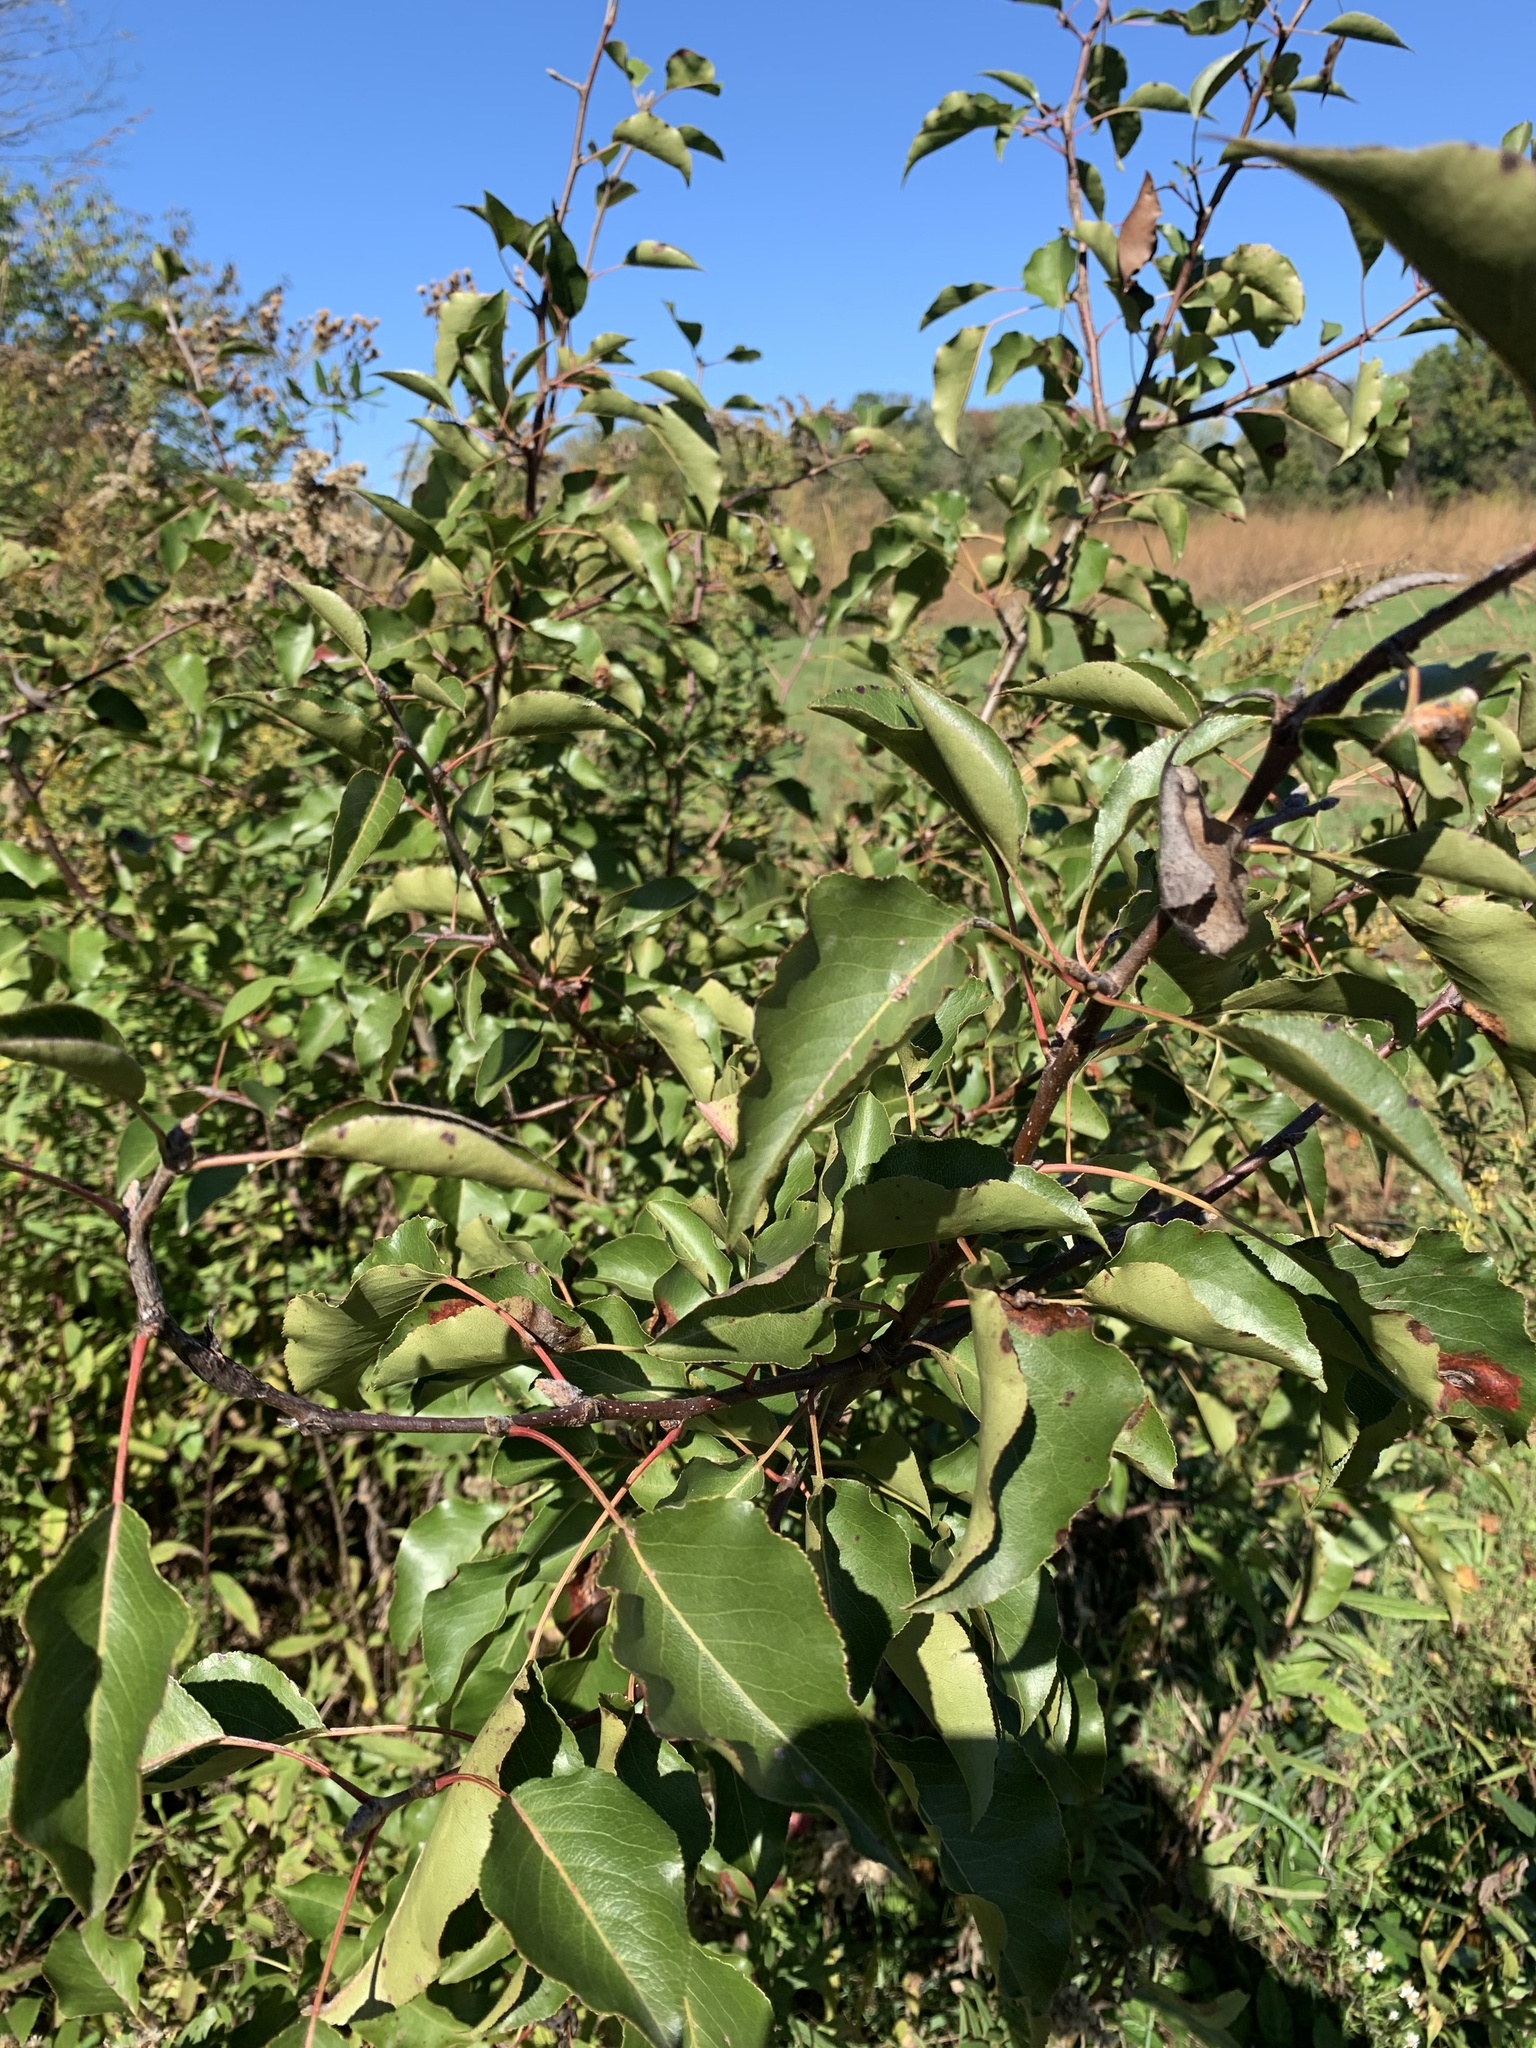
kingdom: Plantae
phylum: Tracheophyta
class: Magnoliopsida
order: Rosales
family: Rosaceae
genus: Pyrus
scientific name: Pyrus calleryana
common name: Callery pear
